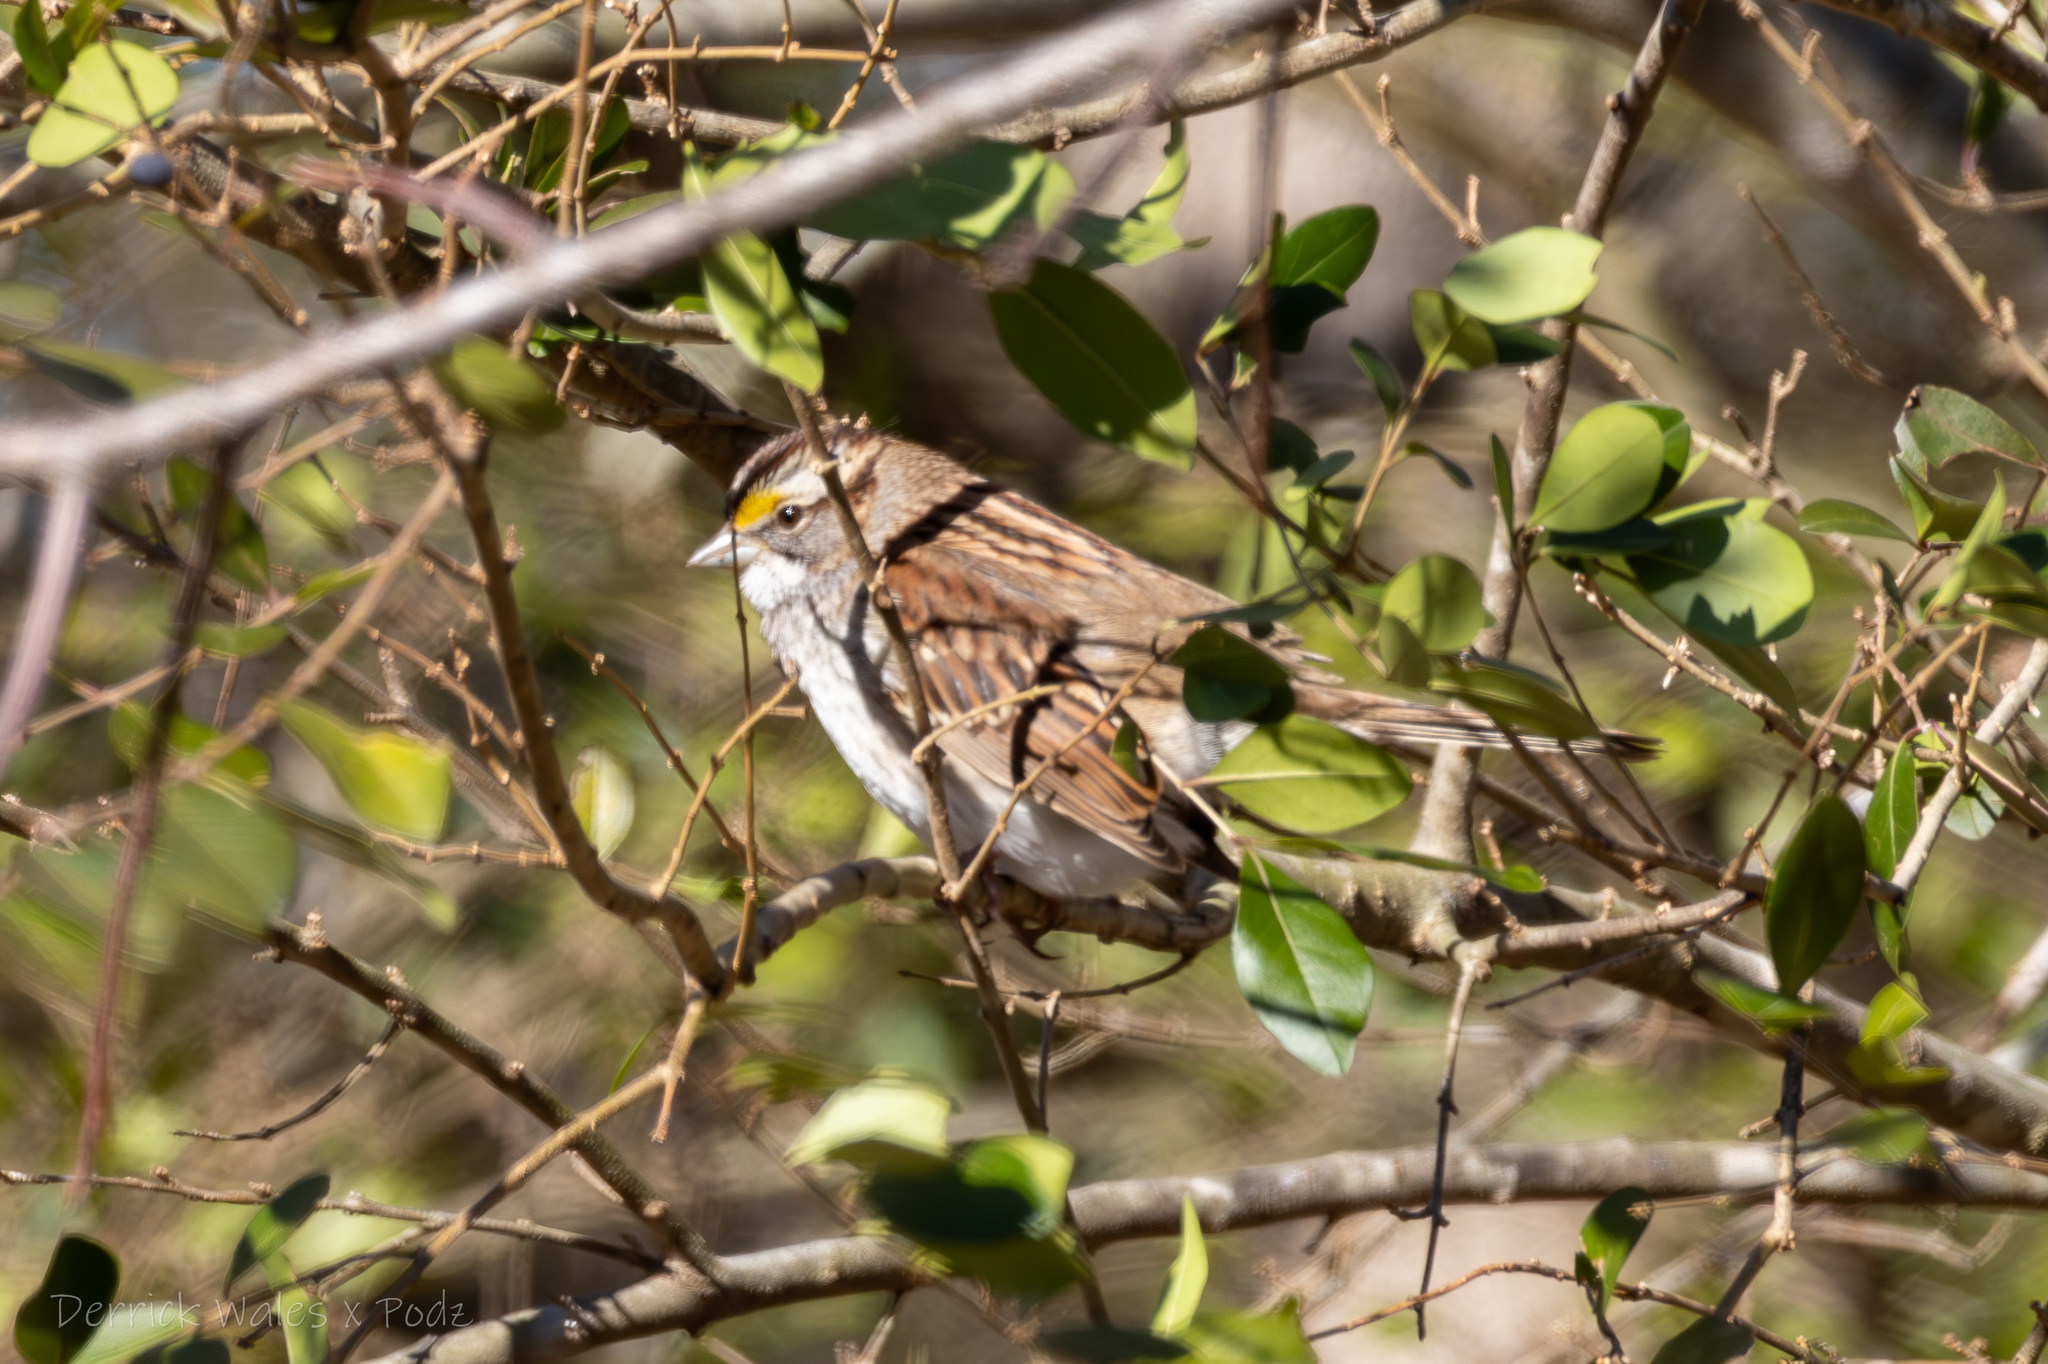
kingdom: Animalia
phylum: Chordata
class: Aves
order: Passeriformes
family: Passerellidae
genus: Zonotrichia
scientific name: Zonotrichia albicollis
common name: White-throated sparrow
